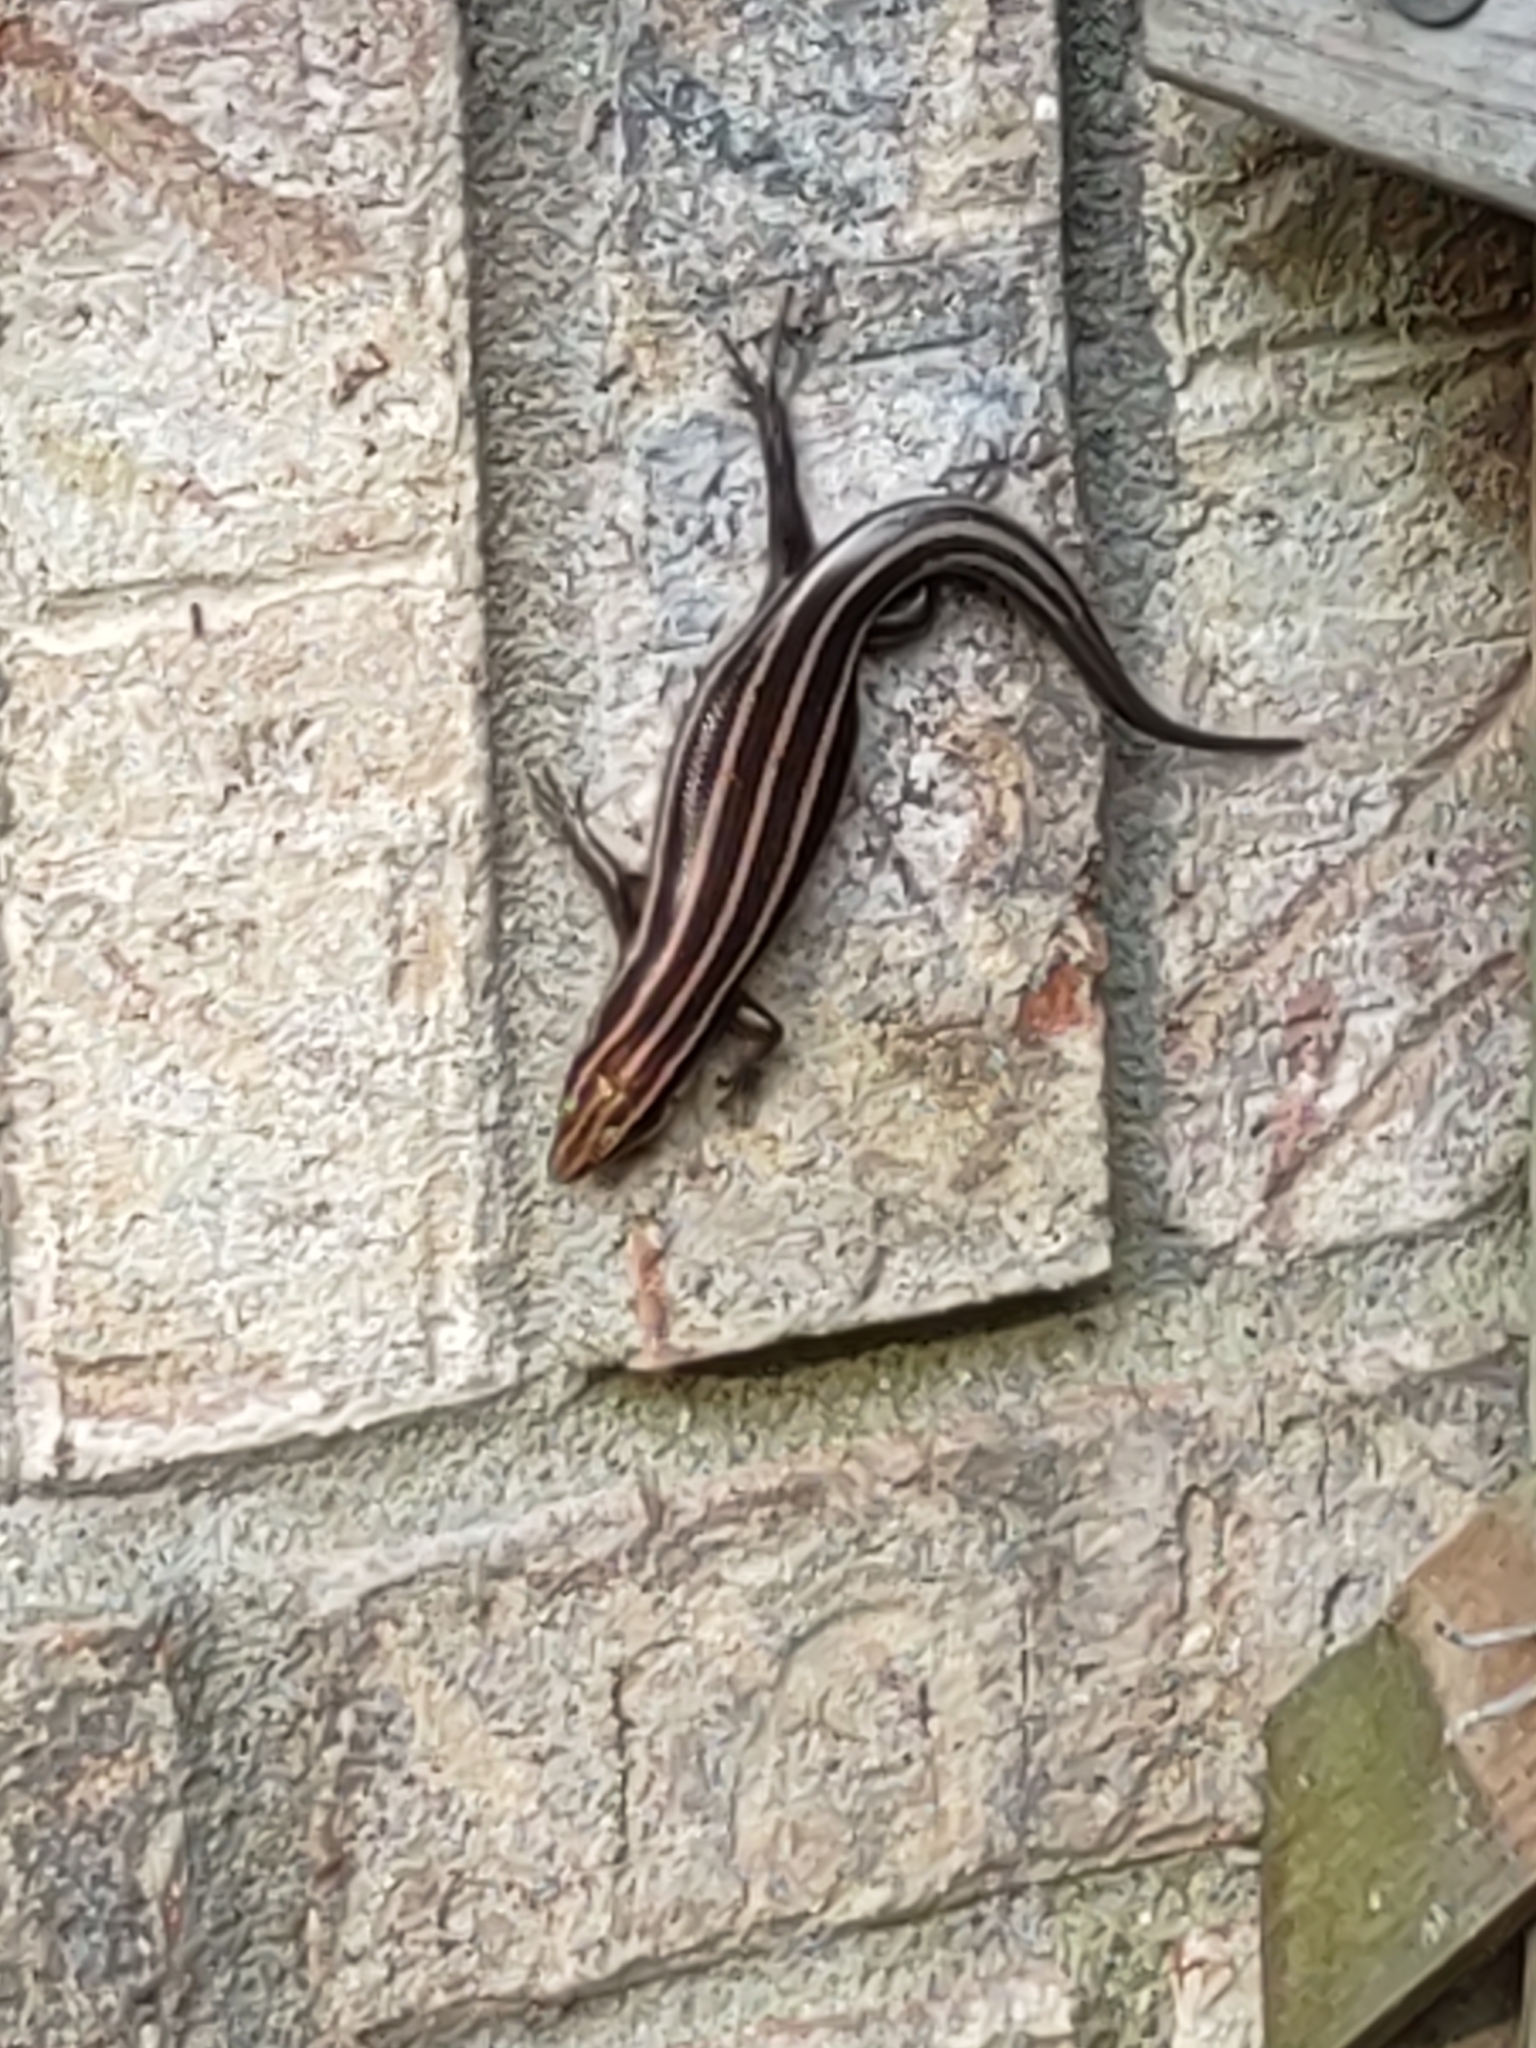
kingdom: Animalia
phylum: Chordata
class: Squamata
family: Scincidae
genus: Plestiodon
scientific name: Plestiodon fasciatus
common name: Five-lined skink
